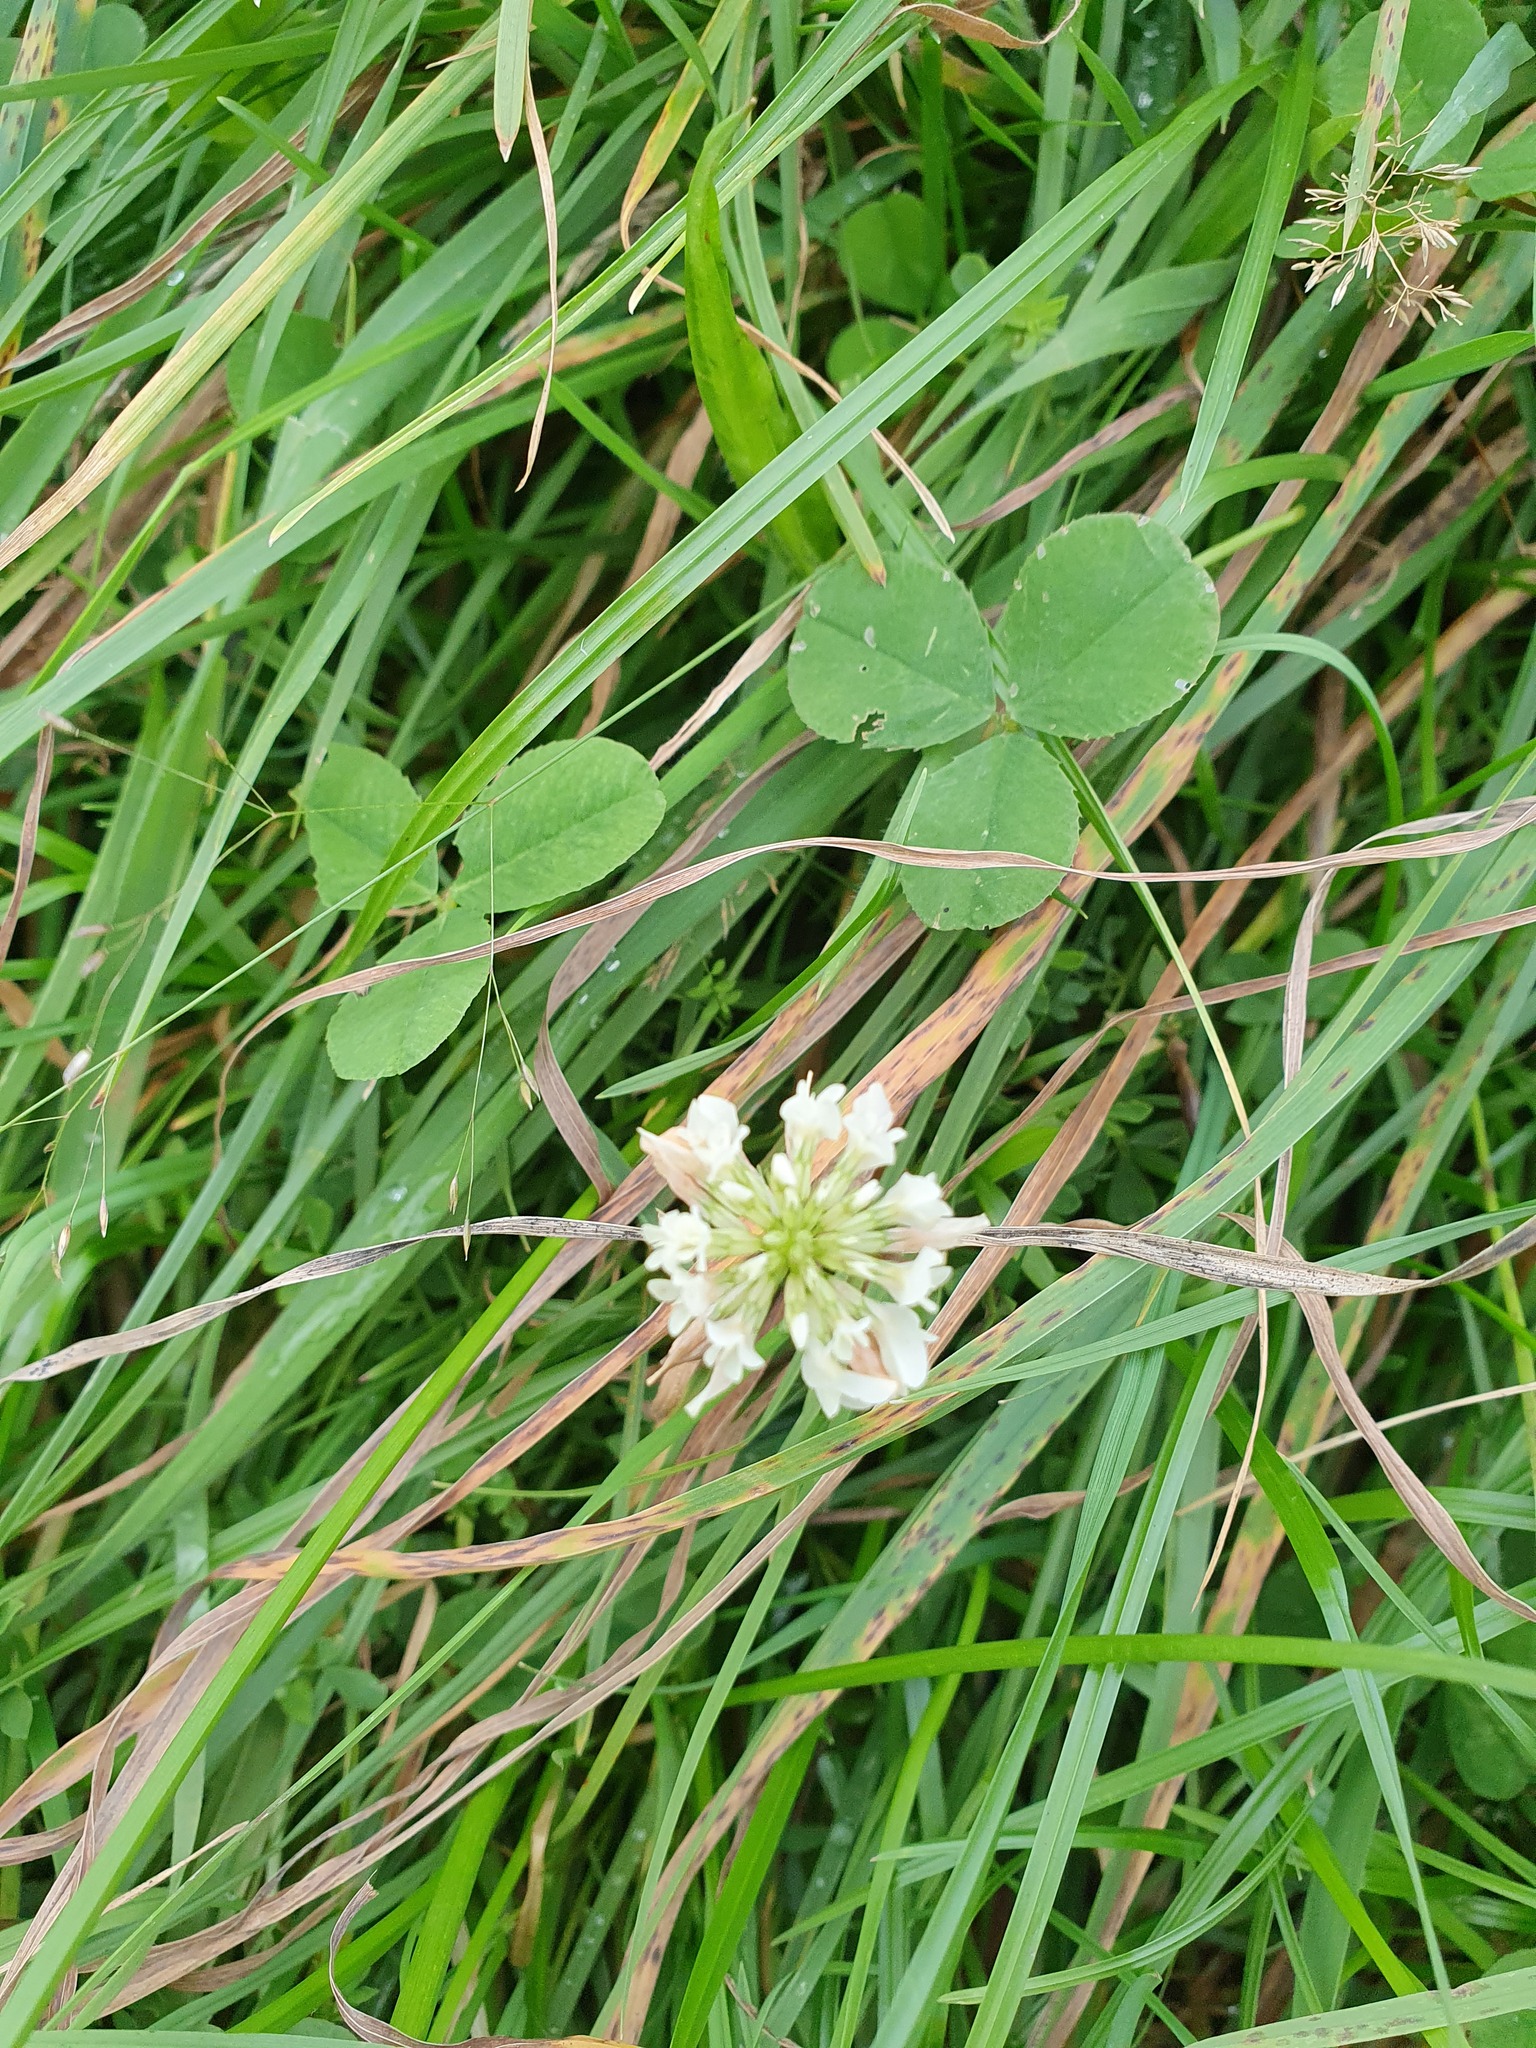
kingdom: Plantae
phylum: Tracheophyta
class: Magnoliopsida
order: Fabales
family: Fabaceae
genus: Trifolium
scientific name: Trifolium repens
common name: White clover
